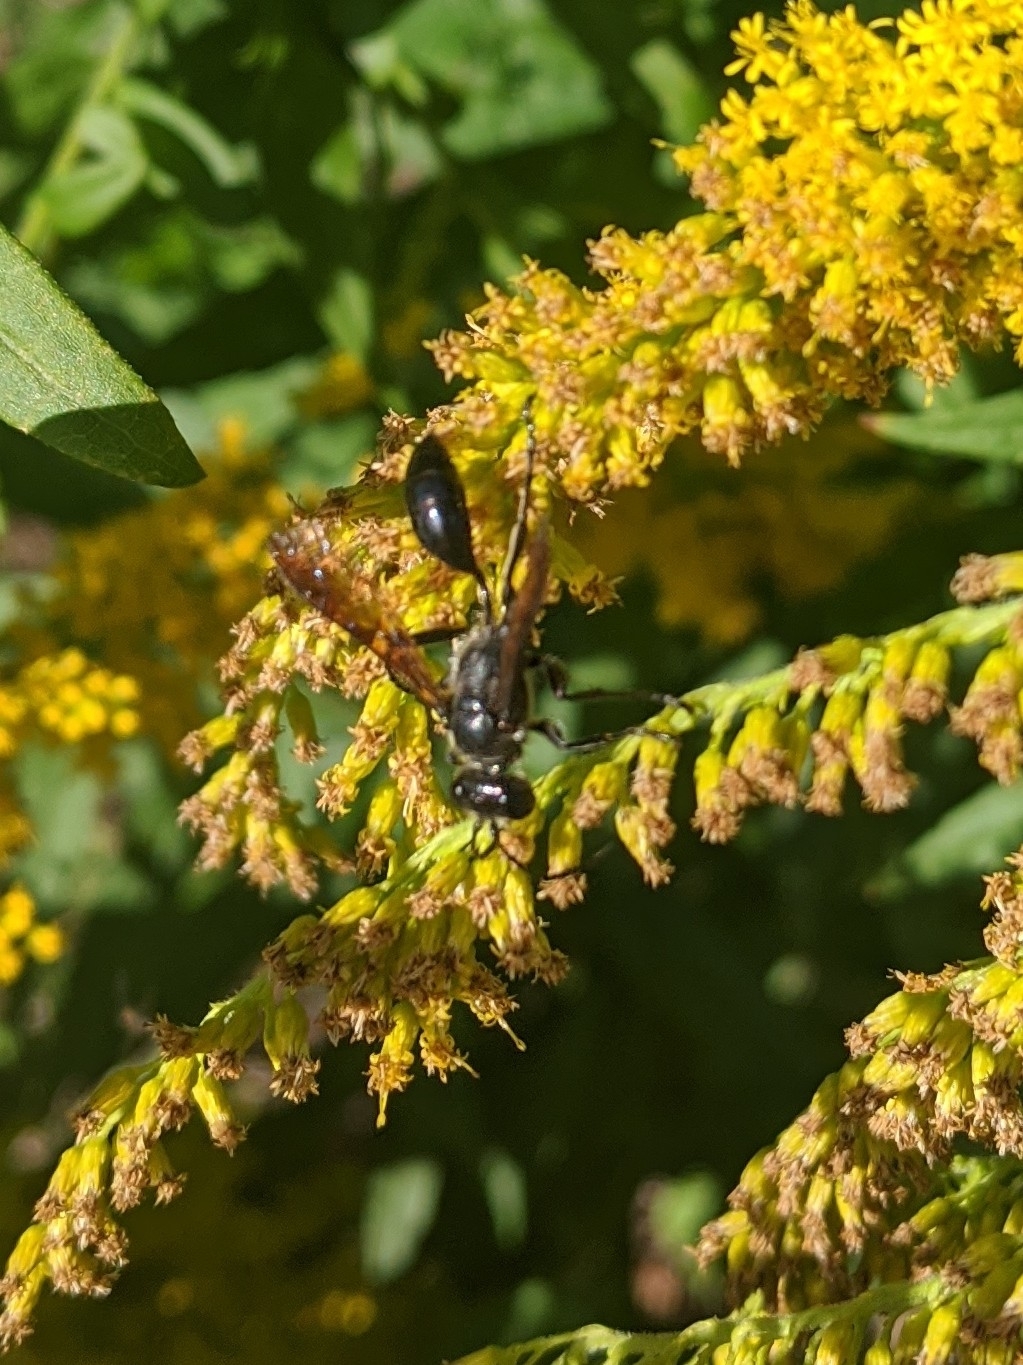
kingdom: Animalia
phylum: Arthropoda
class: Insecta
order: Hymenoptera
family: Sphecidae
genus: Isodontia
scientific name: Isodontia mexicana
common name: Mud dauber
